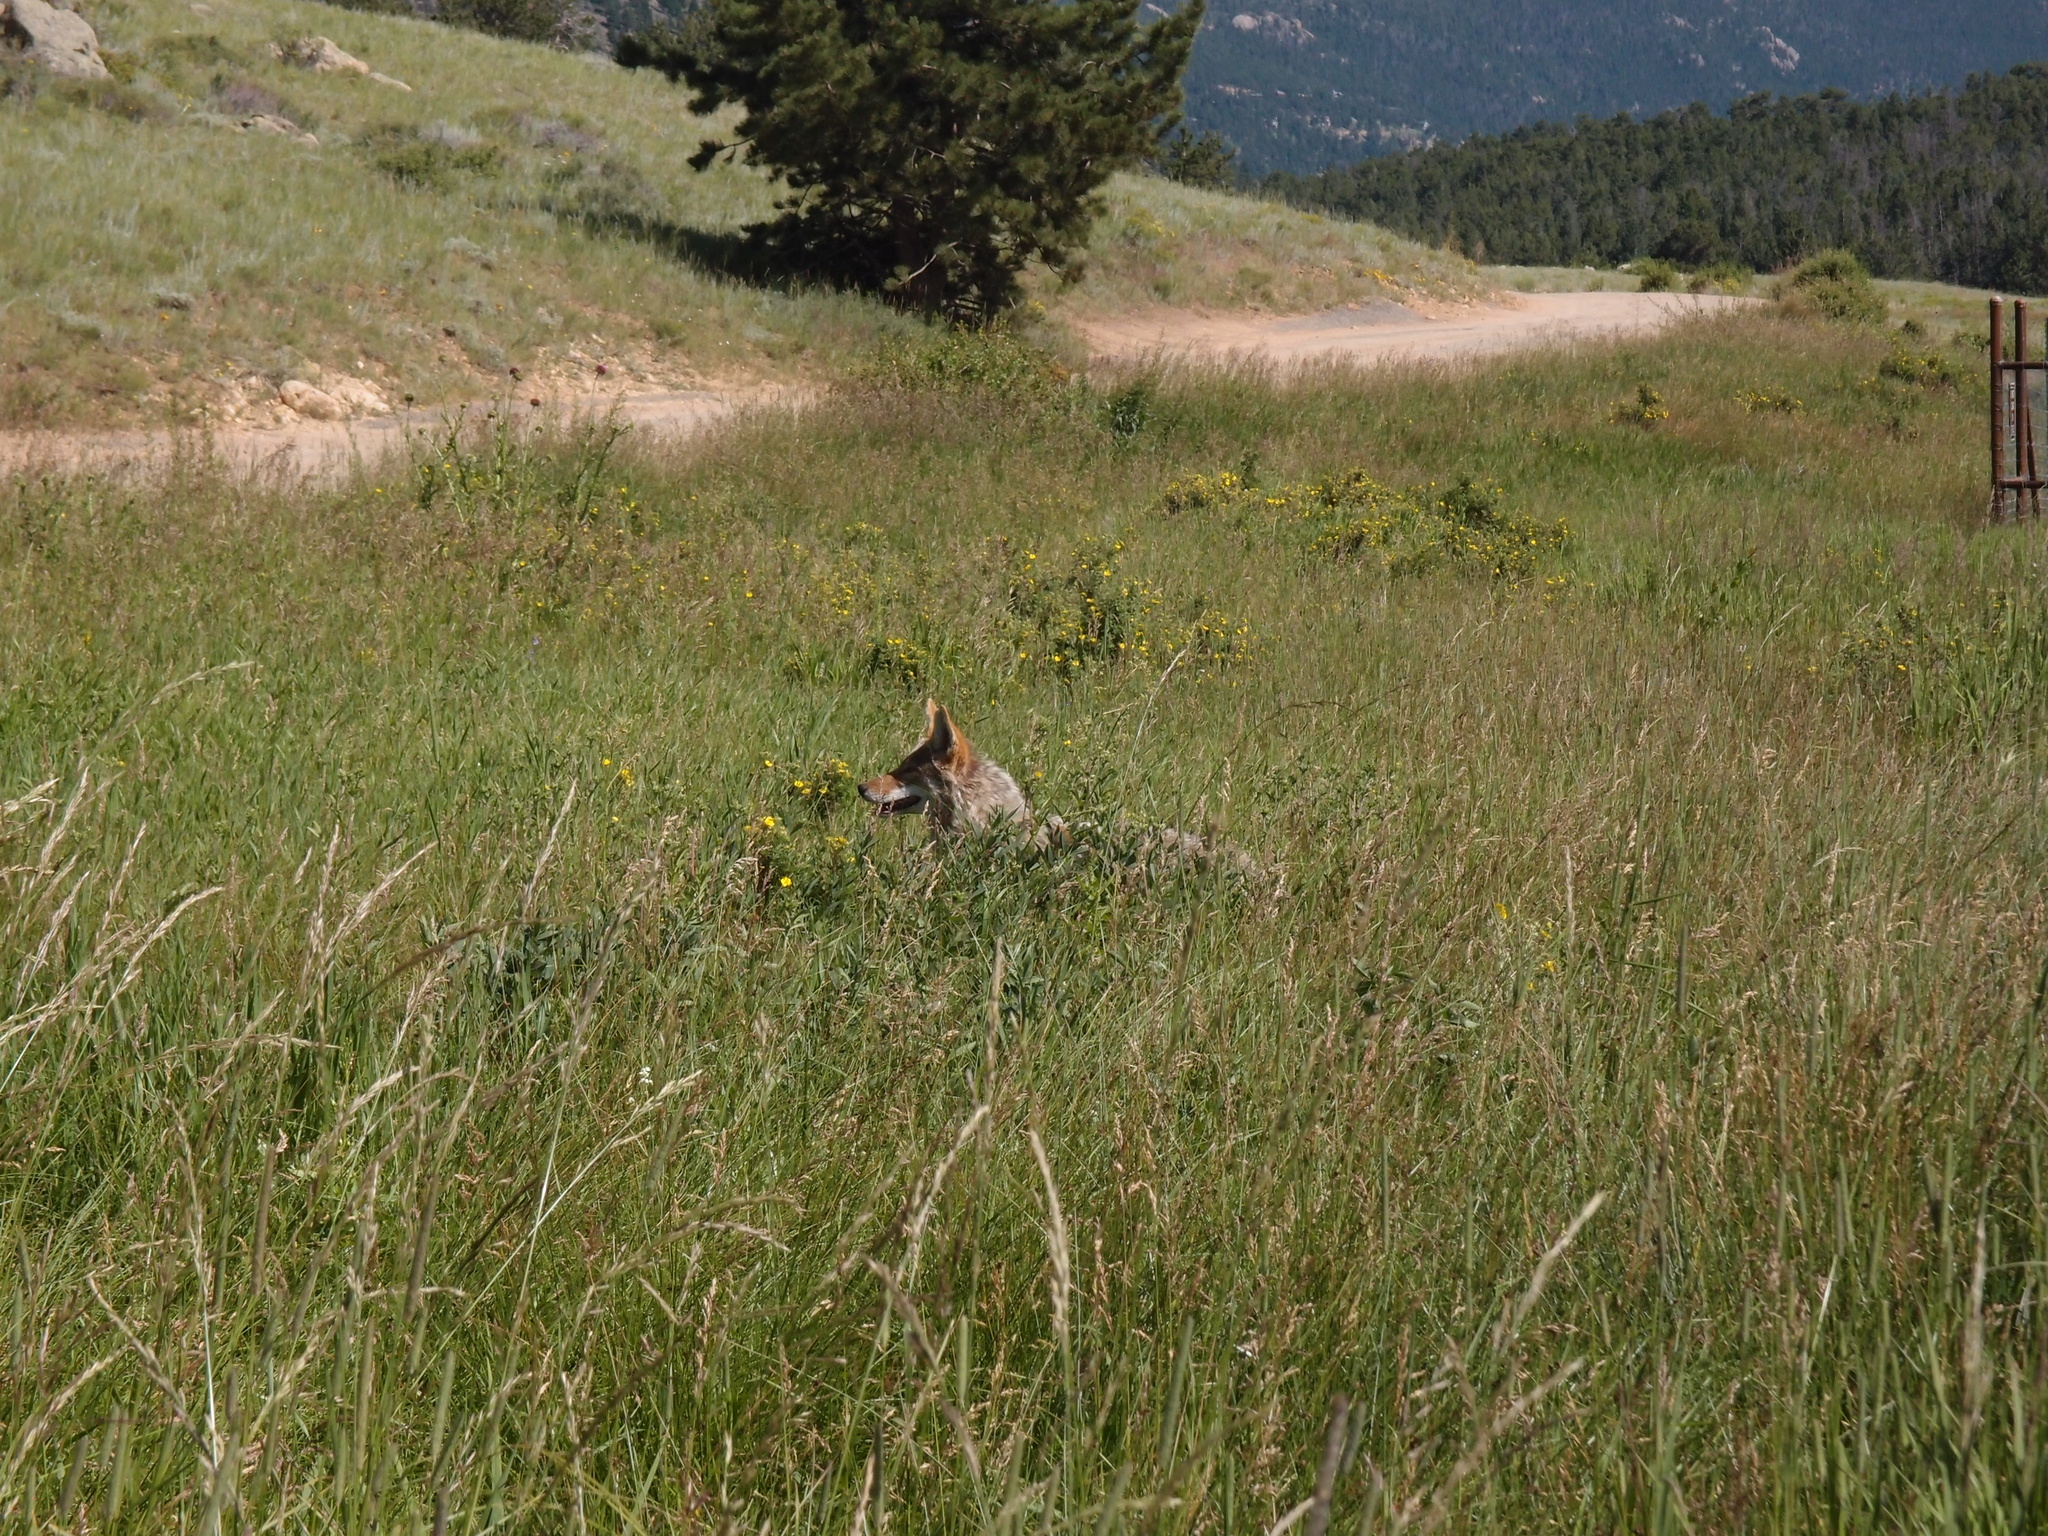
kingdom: Animalia
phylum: Chordata
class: Mammalia
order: Carnivora
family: Canidae
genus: Canis
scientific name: Canis latrans
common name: Coyote
